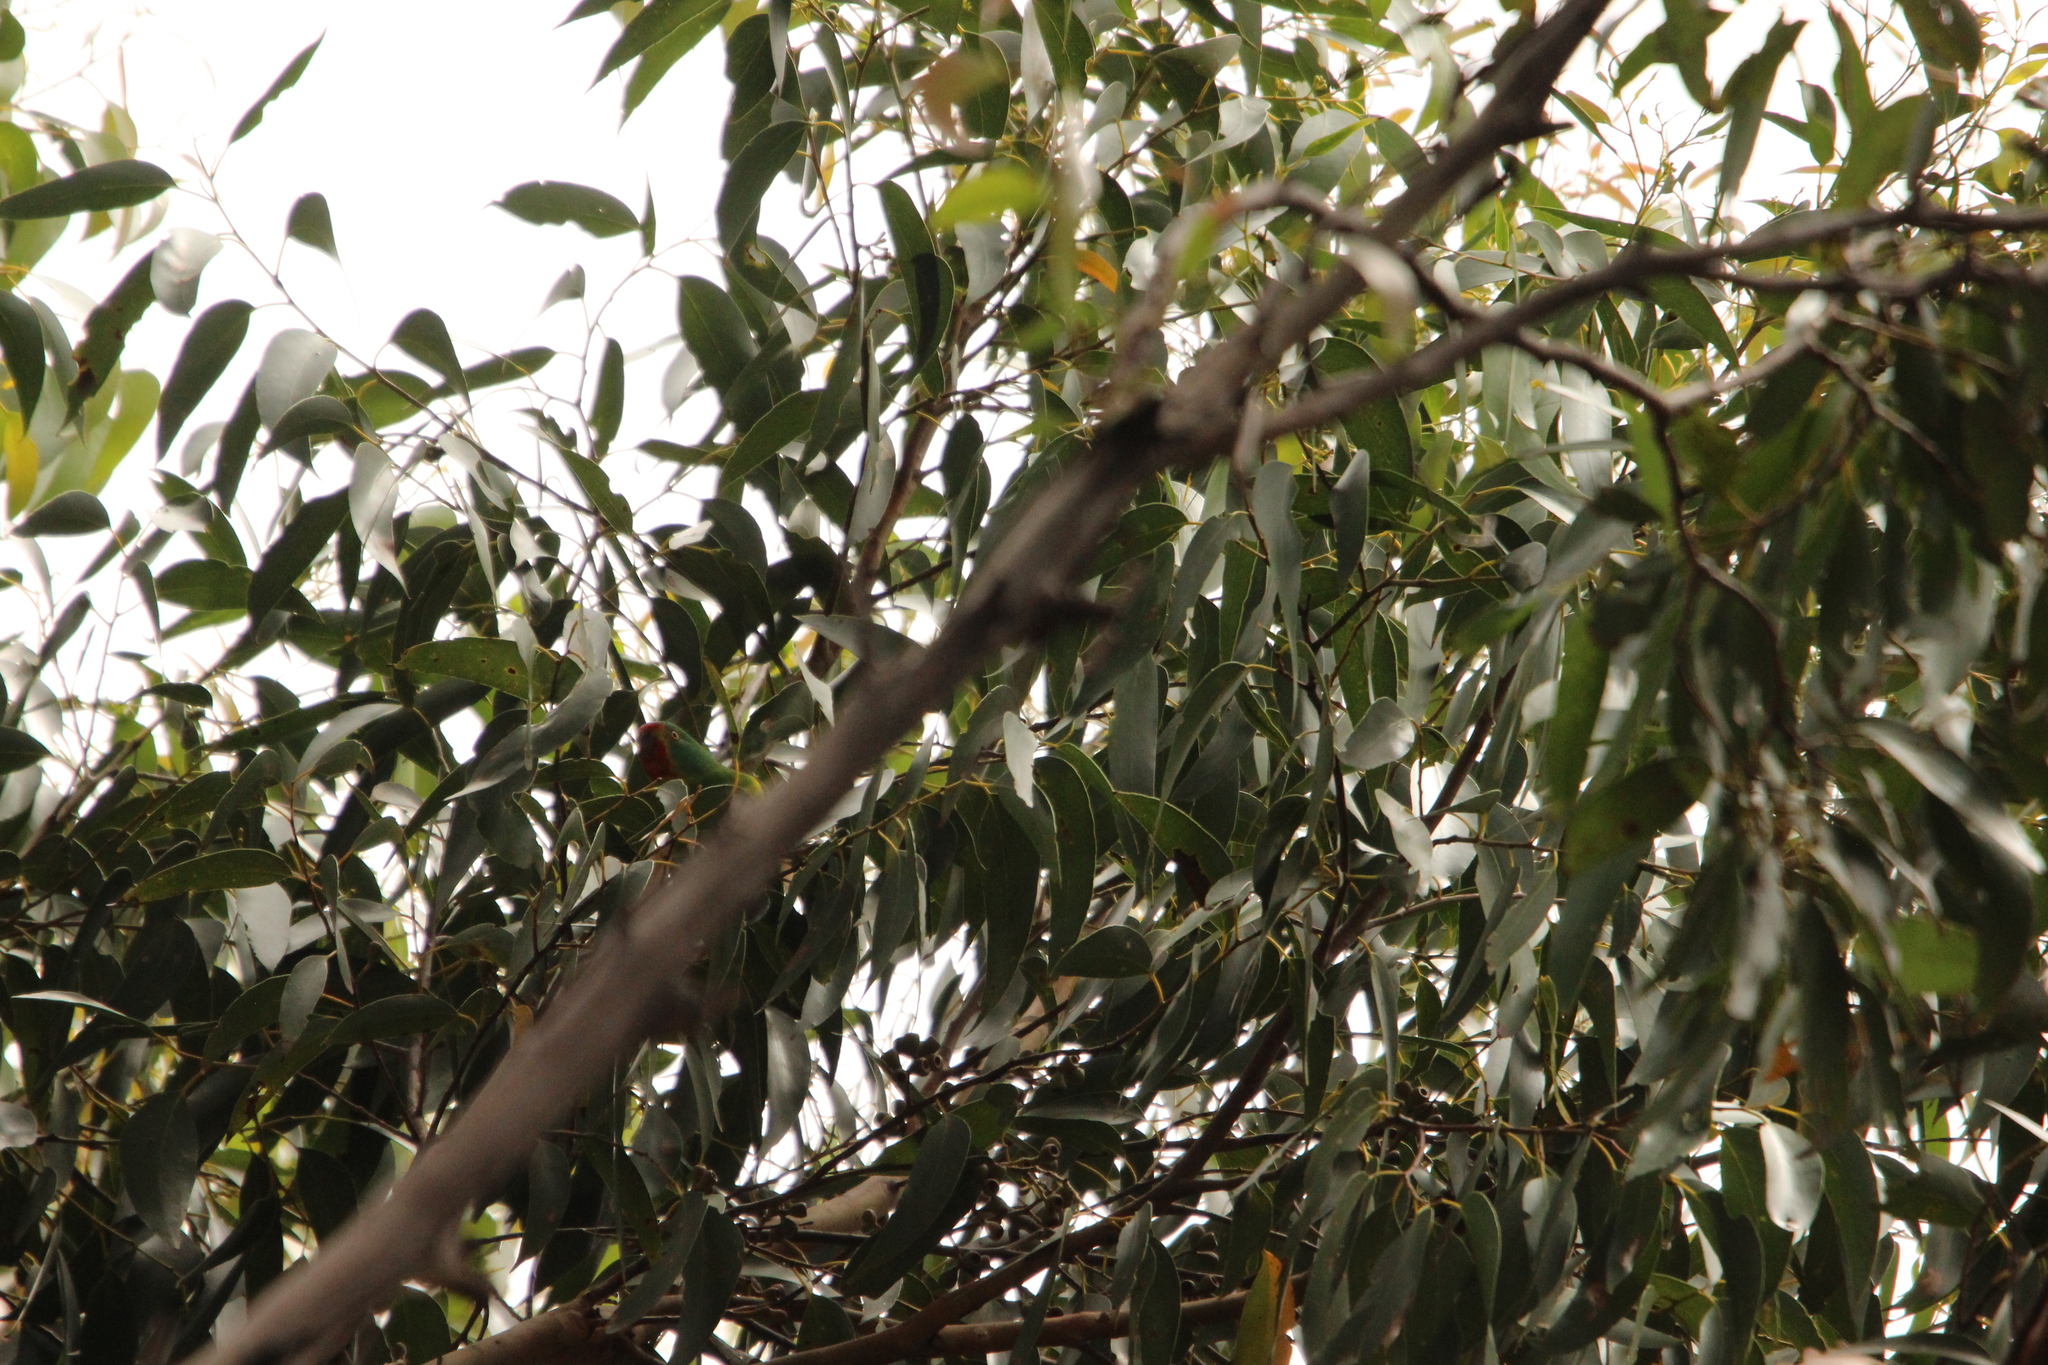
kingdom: Animalia
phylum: Chordata
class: Aves
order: Psittaciformes
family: Psittacidae
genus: Lathamus
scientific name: Lathamus discolor
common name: Swift parrot
